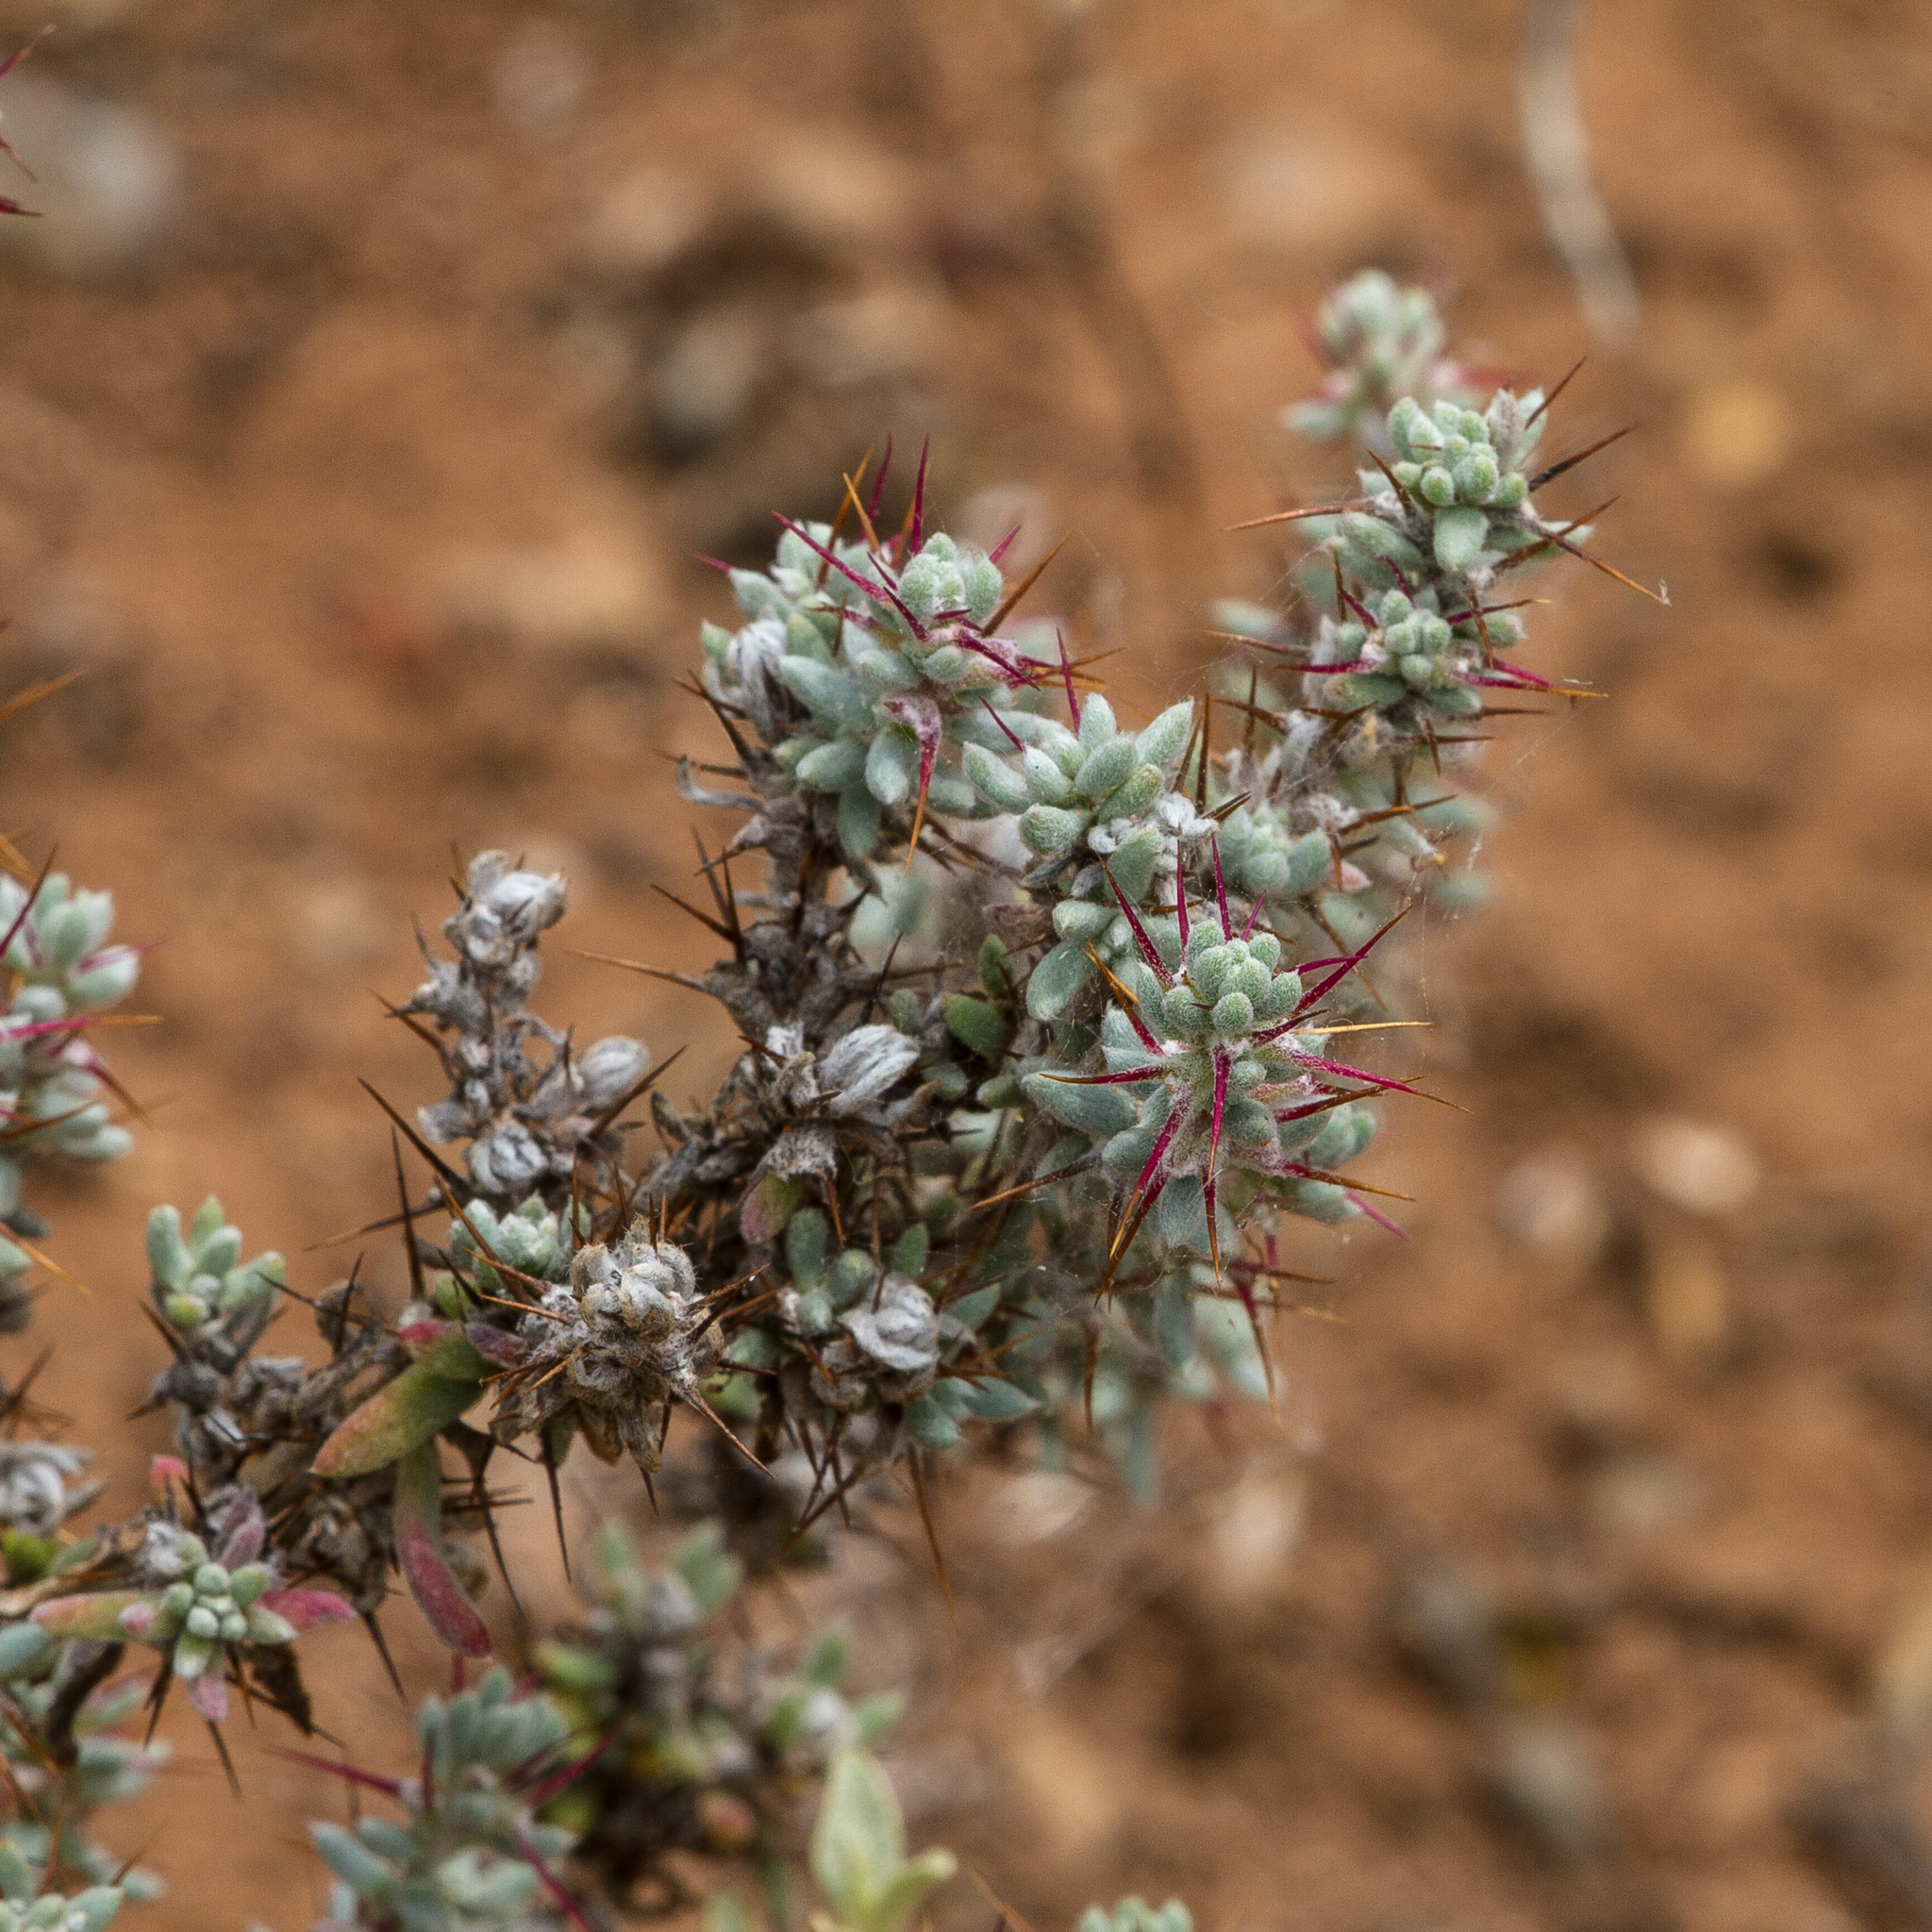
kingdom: Plantae
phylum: Tracheophyta
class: Magnoliopsida
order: Caryophyllales
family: Amaranthaceae
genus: Sclerolaena
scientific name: Sclerolaena obliquicuspis
